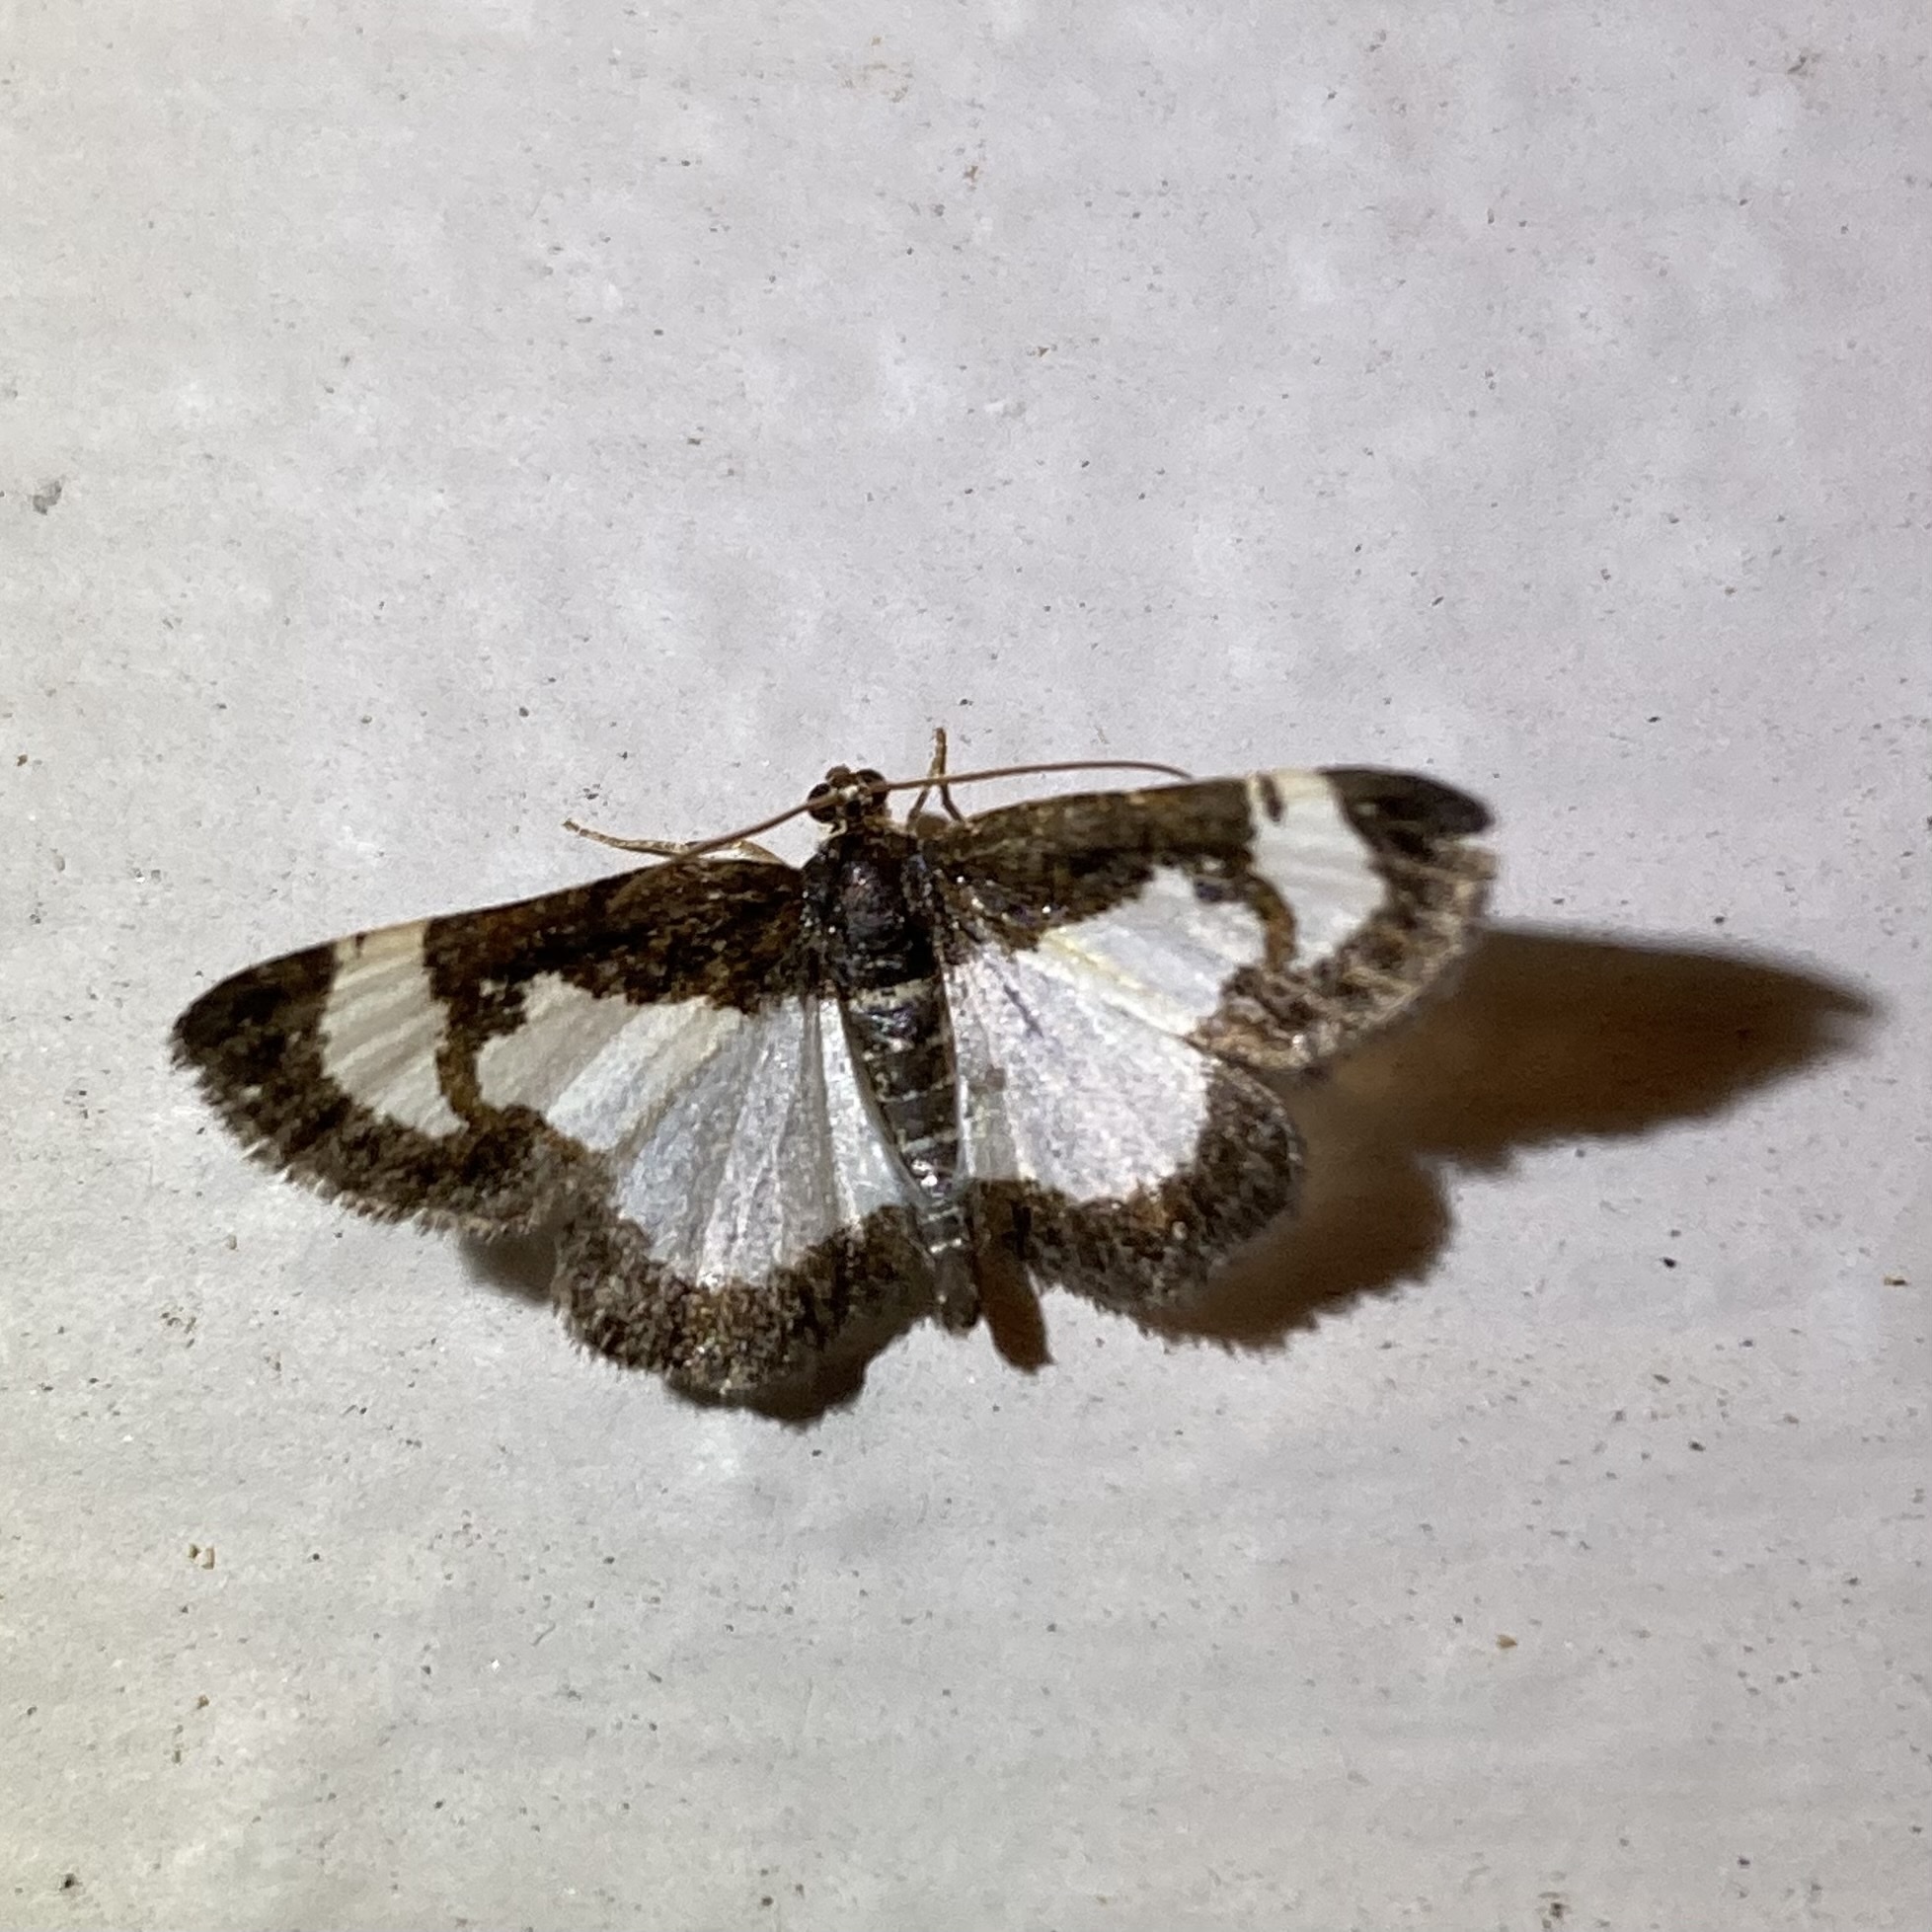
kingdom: Animalia
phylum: Arthropoda
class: Insecta
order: Lepidoptera
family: Geometridae
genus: Heliomata
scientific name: Heliomata cycladata
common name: Common spring moth
